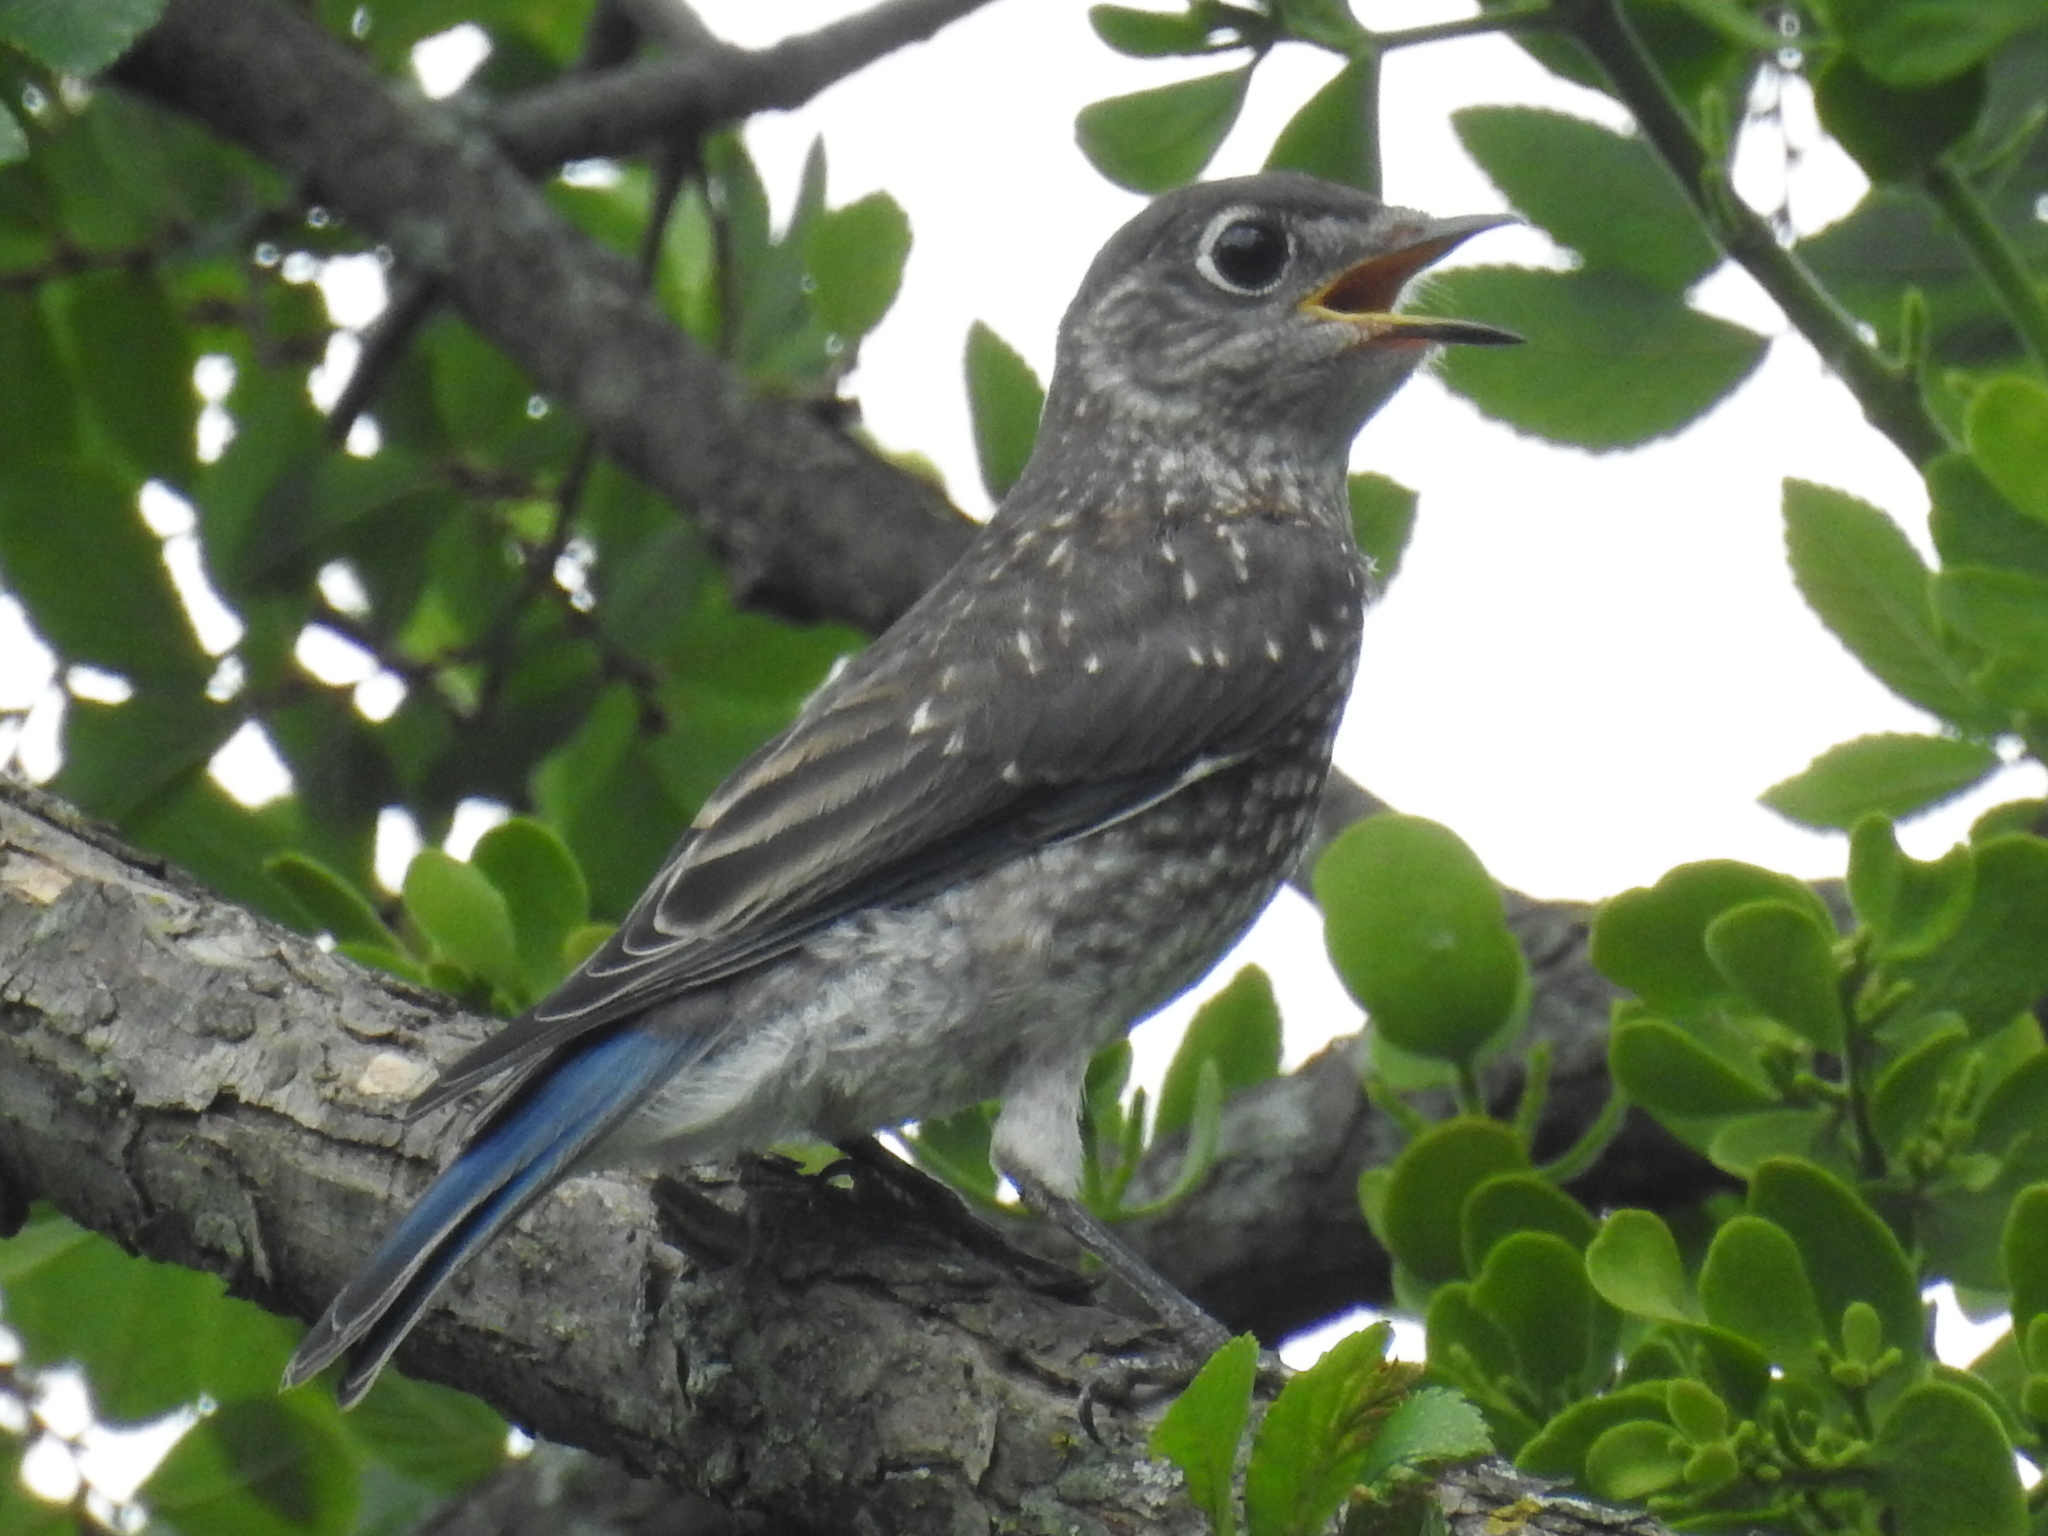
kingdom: Animalia
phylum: Chordata
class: Aves
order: Passeriformes
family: Turdidae
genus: Sialia
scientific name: Sialia sialis
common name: Eastern bluebird
